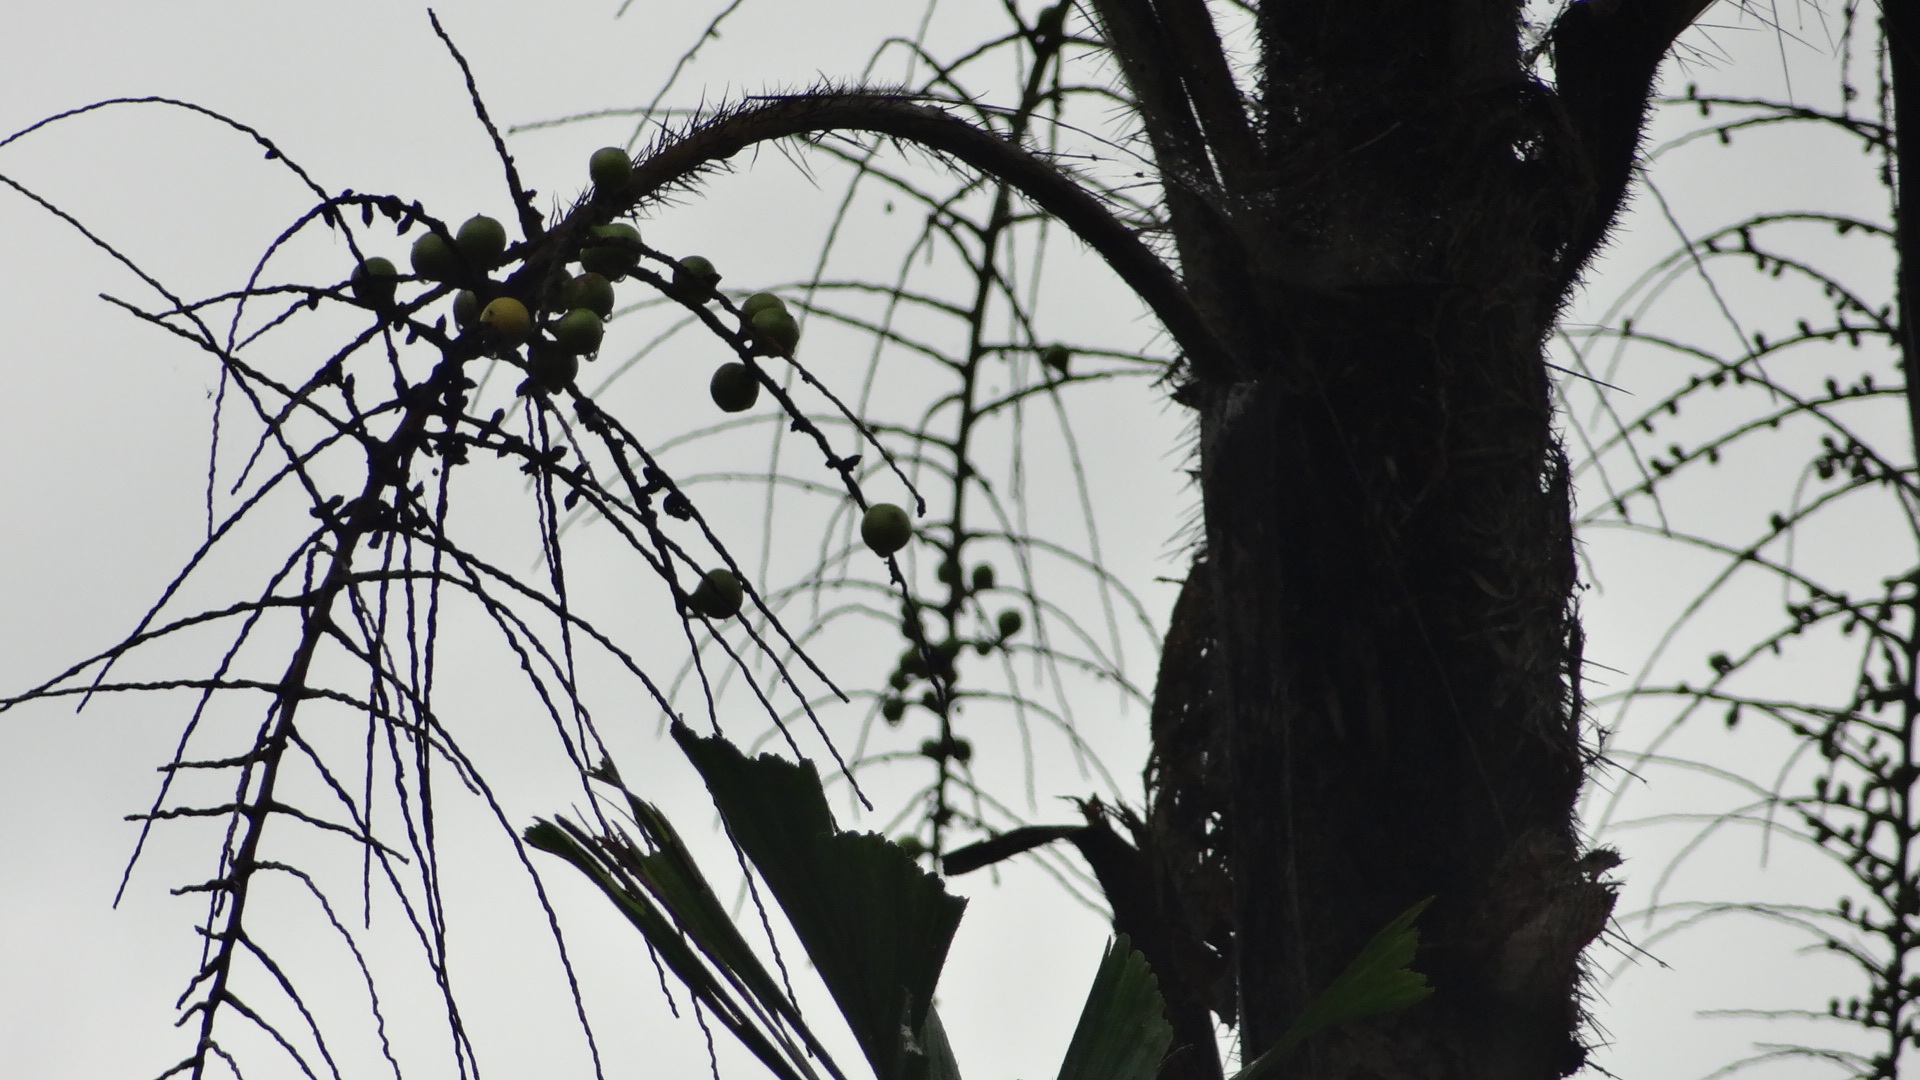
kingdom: Plantae
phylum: Tracheophyta
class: Liliopsida
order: Arecales
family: Arecaceae
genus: Aiphanes
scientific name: Aiphanes eggersii
